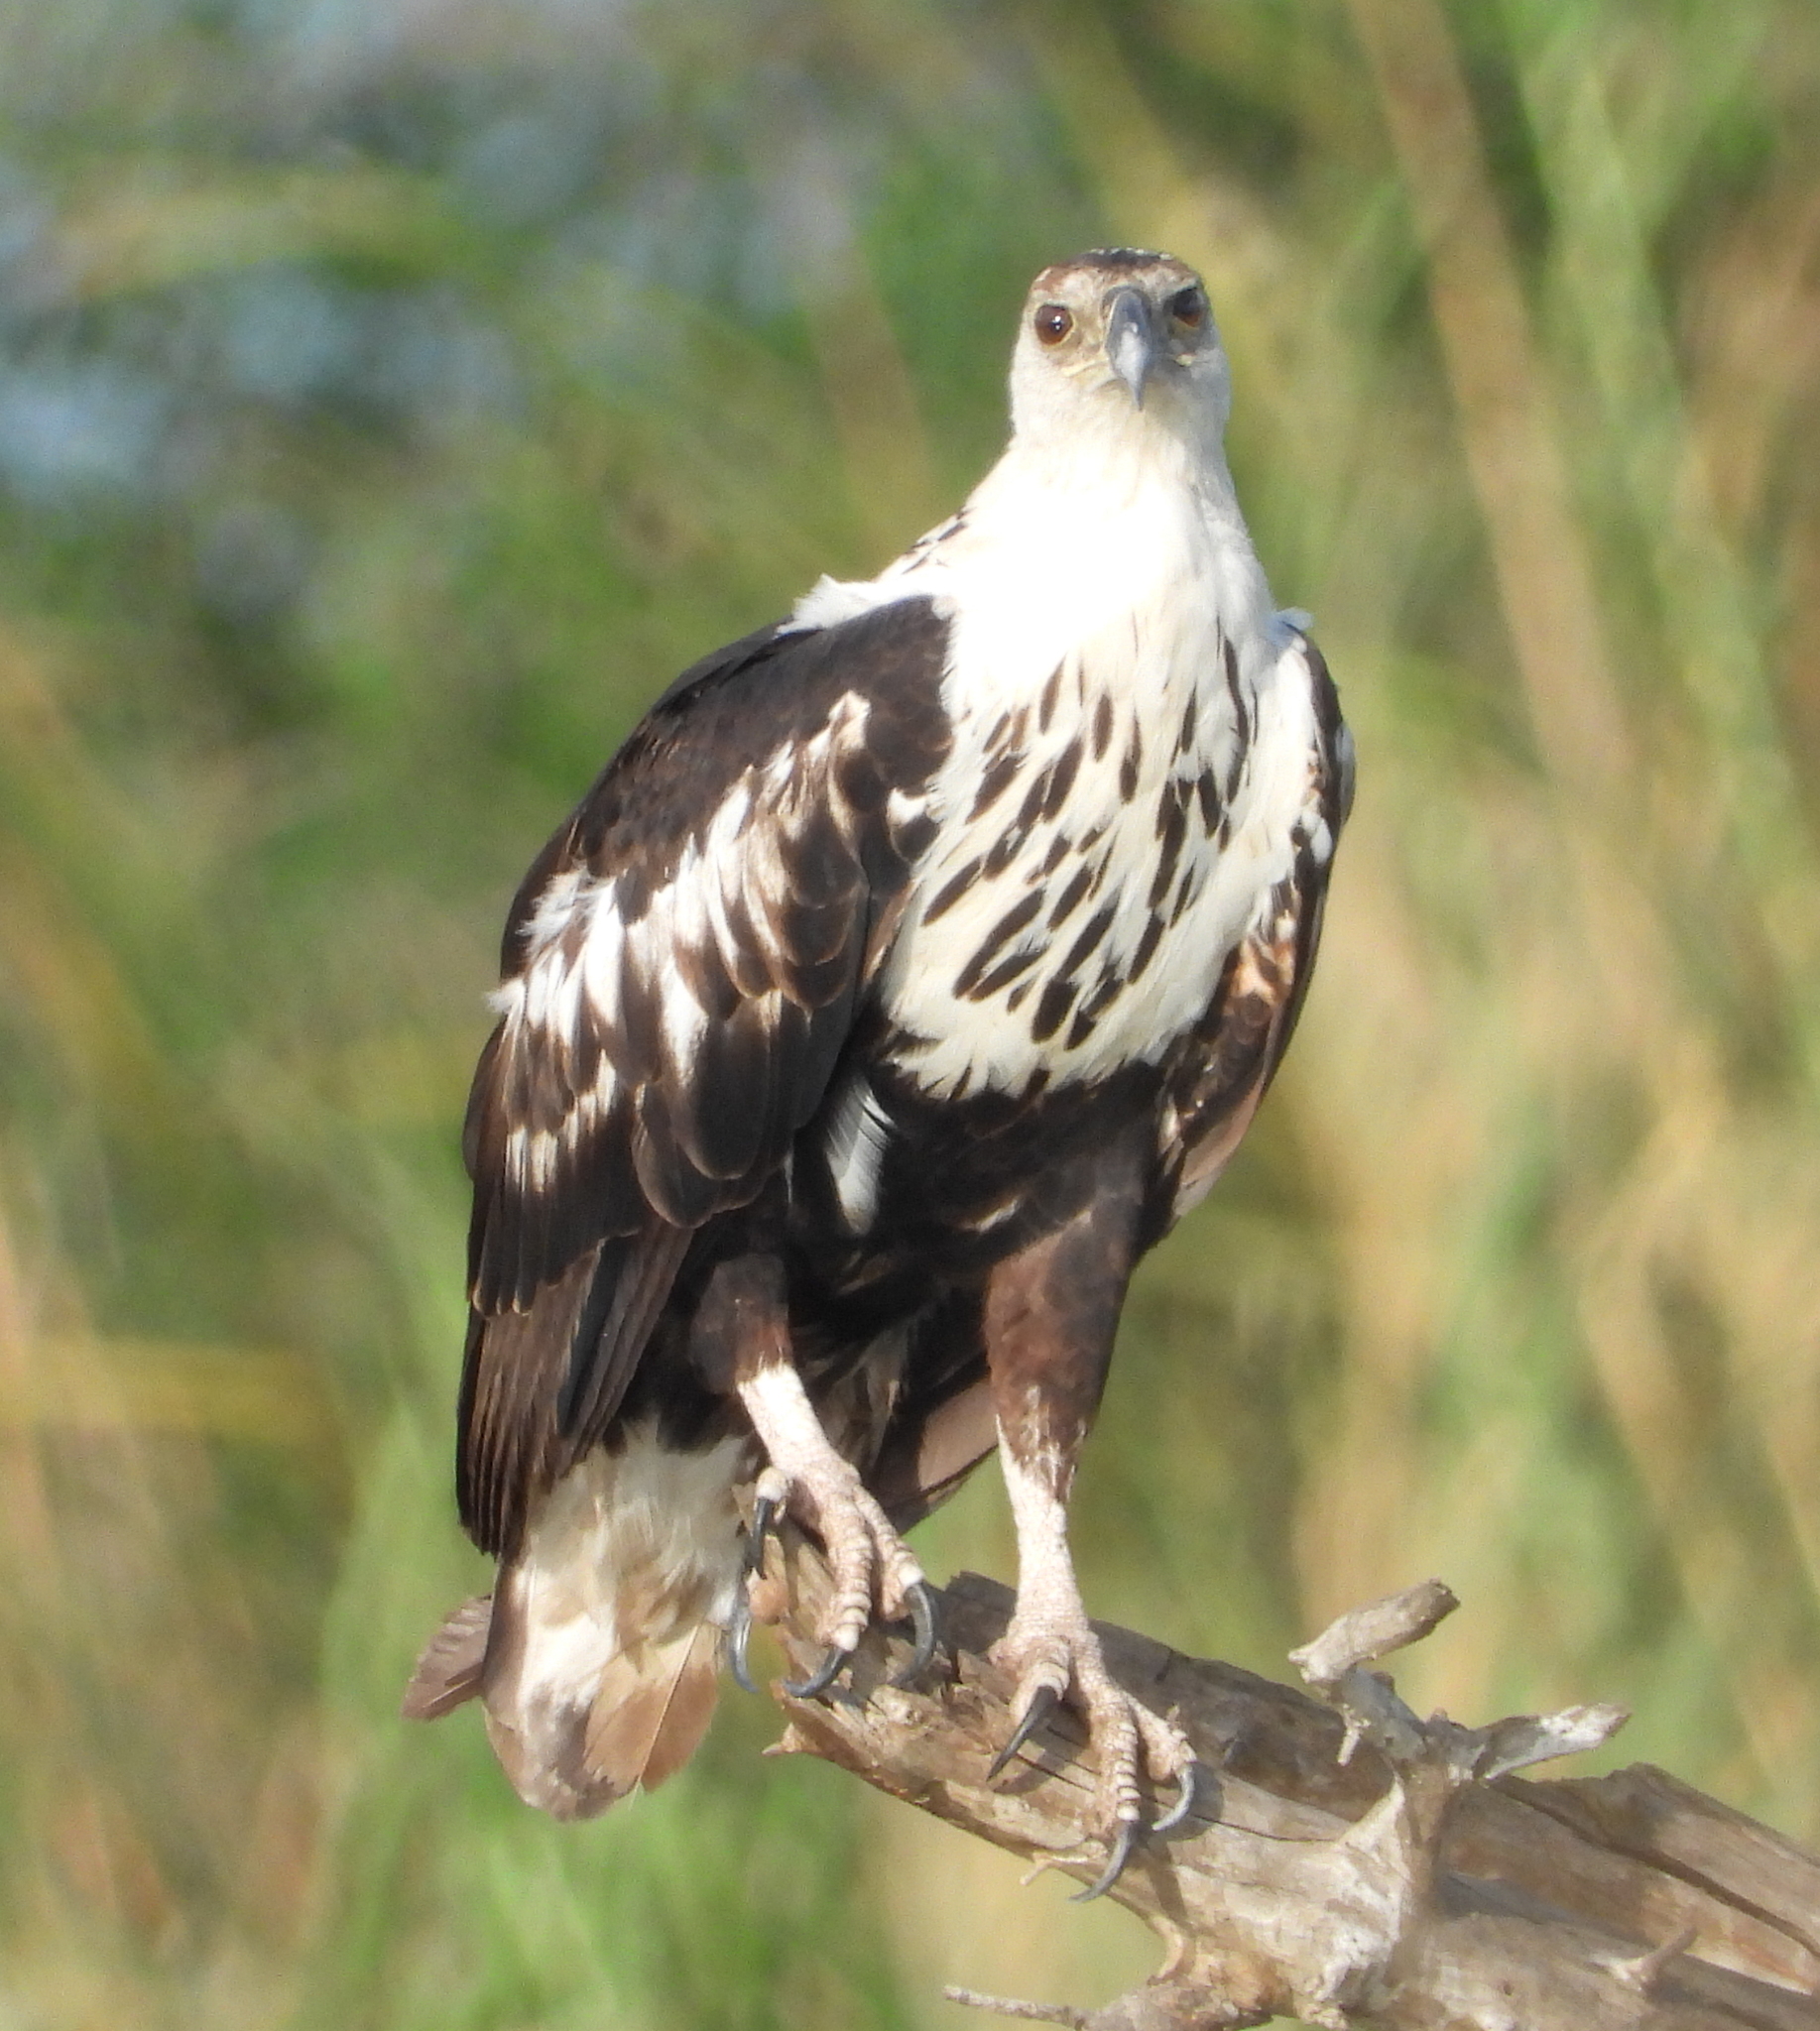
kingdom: Animalia
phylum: Chordata
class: Aves
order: Accipitriformes
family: Accipitridae
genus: Haliaeetus
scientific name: Haliaeetus vocifer
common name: African fish eagle
